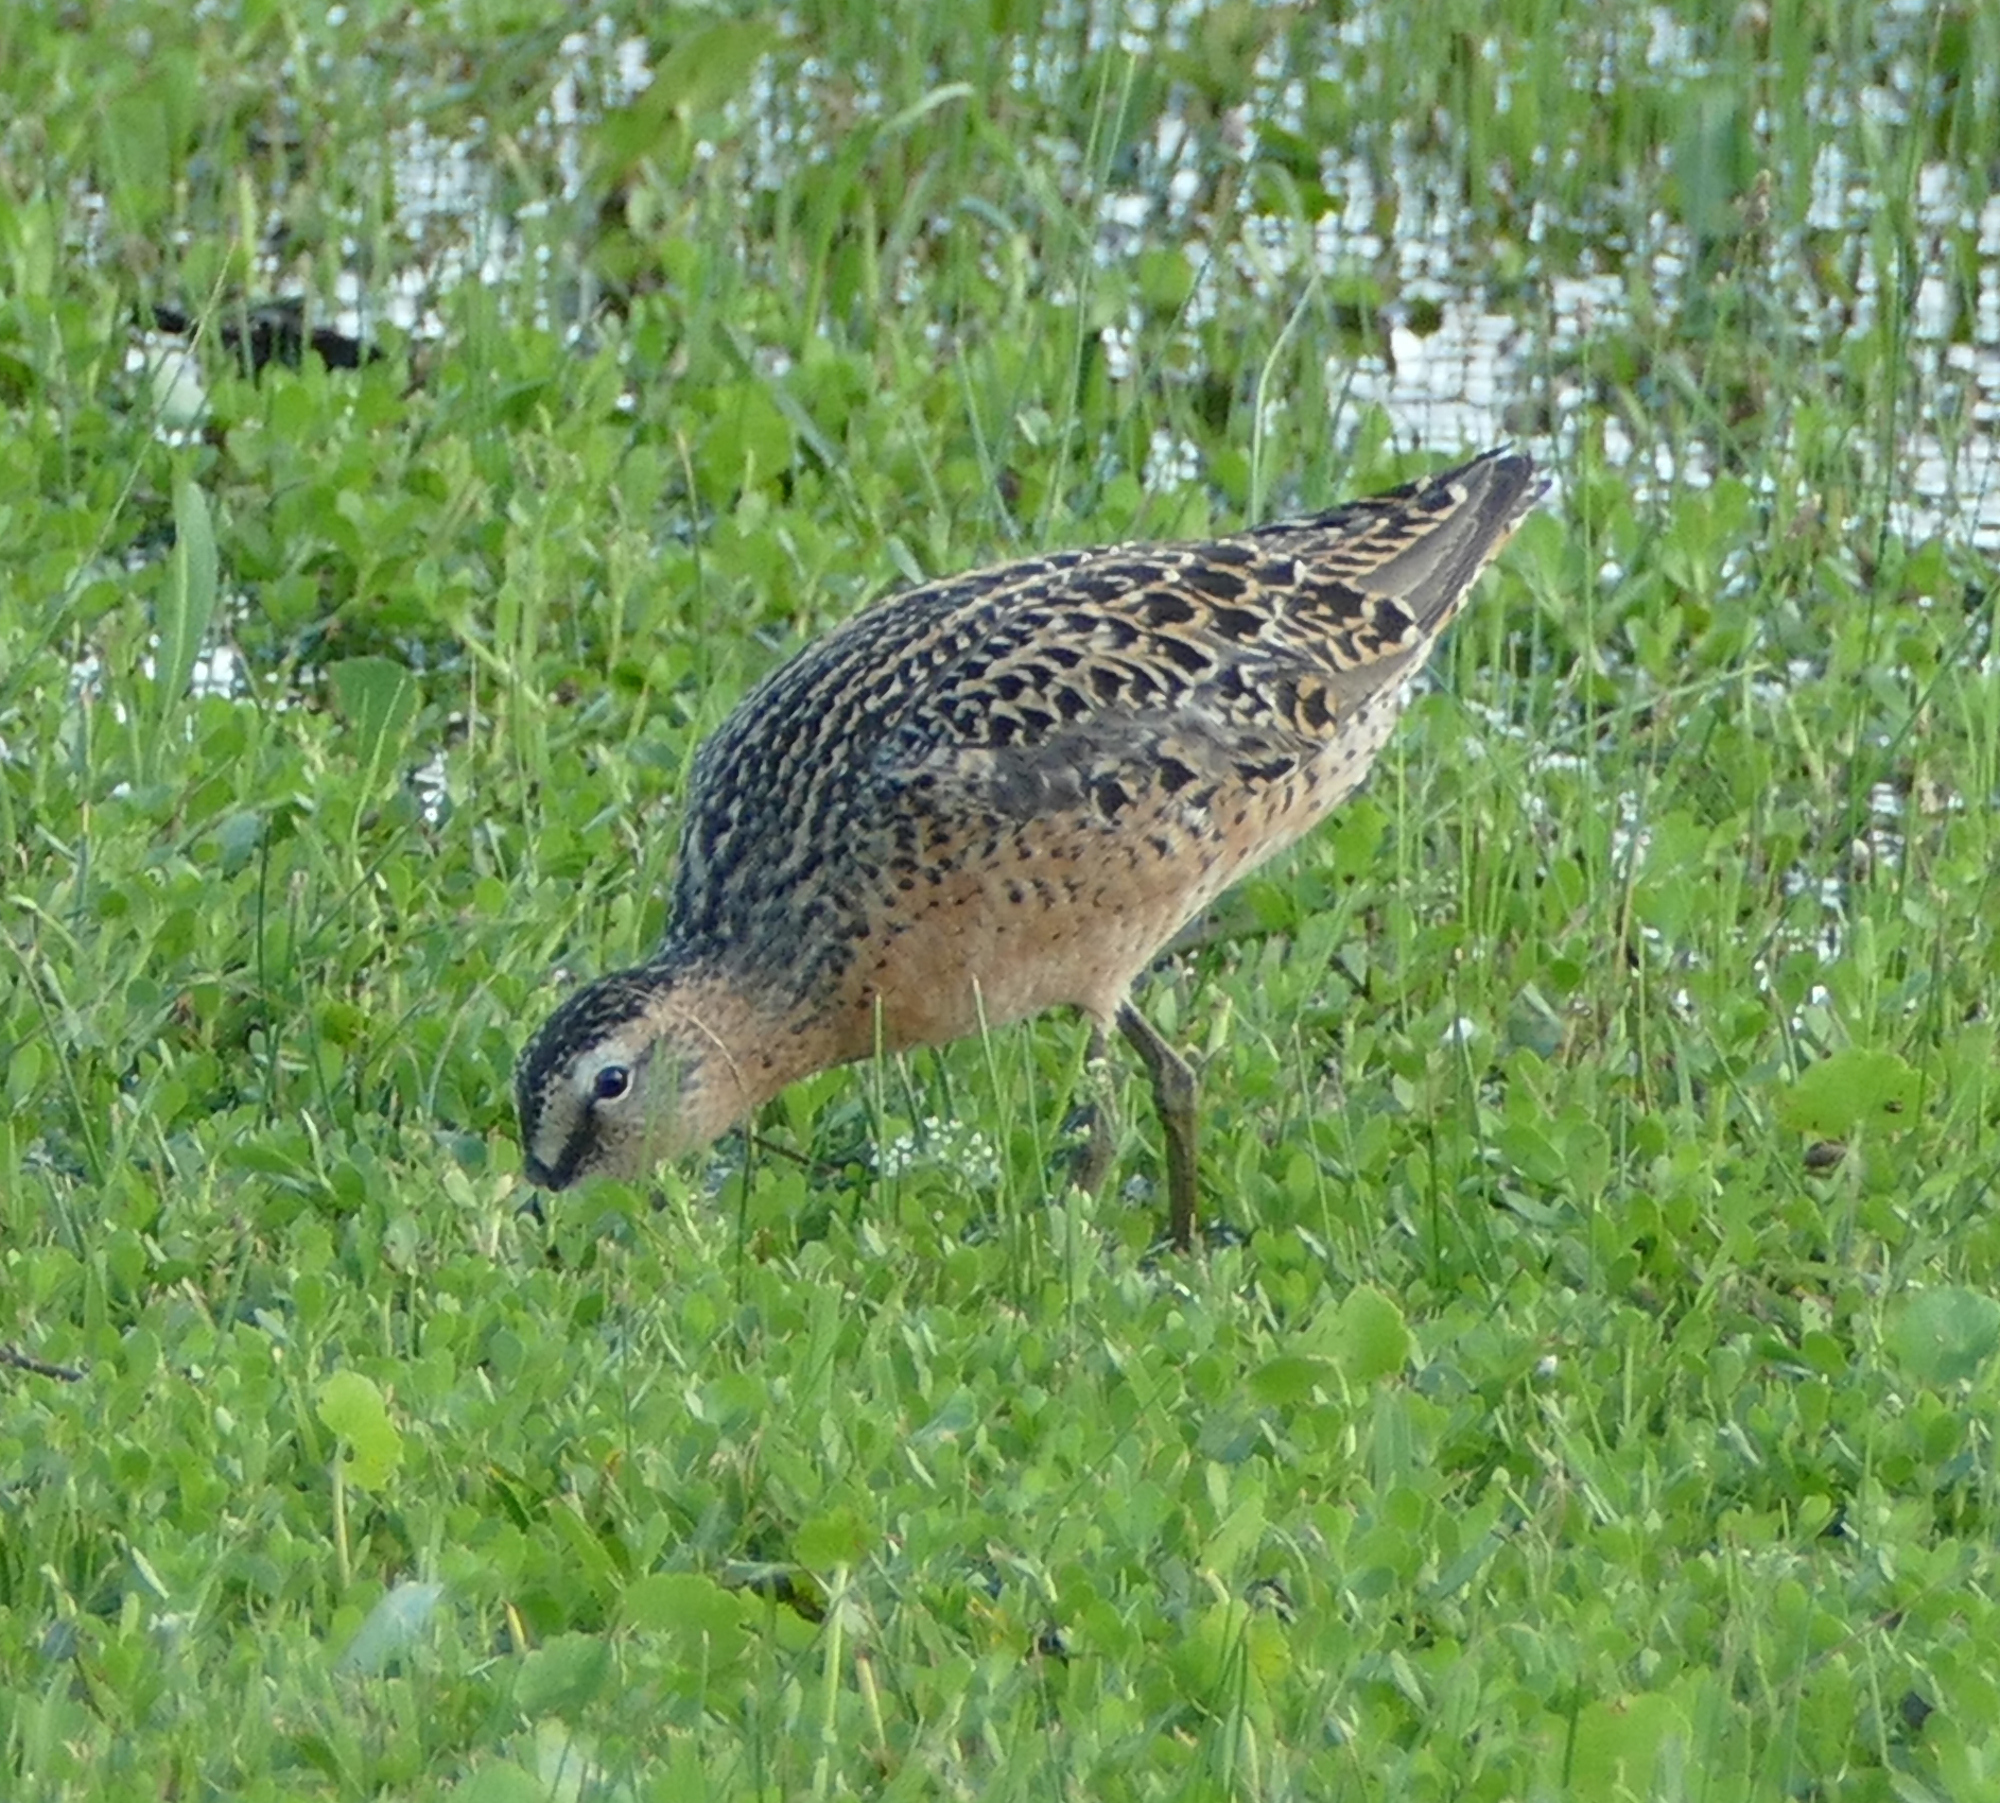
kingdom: Animalia
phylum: Chordata
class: Aves
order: Charadriiformes
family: Scolopacidae
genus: Limnodromus
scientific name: Limnodromus griseus
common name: Short-billed dowitcher
